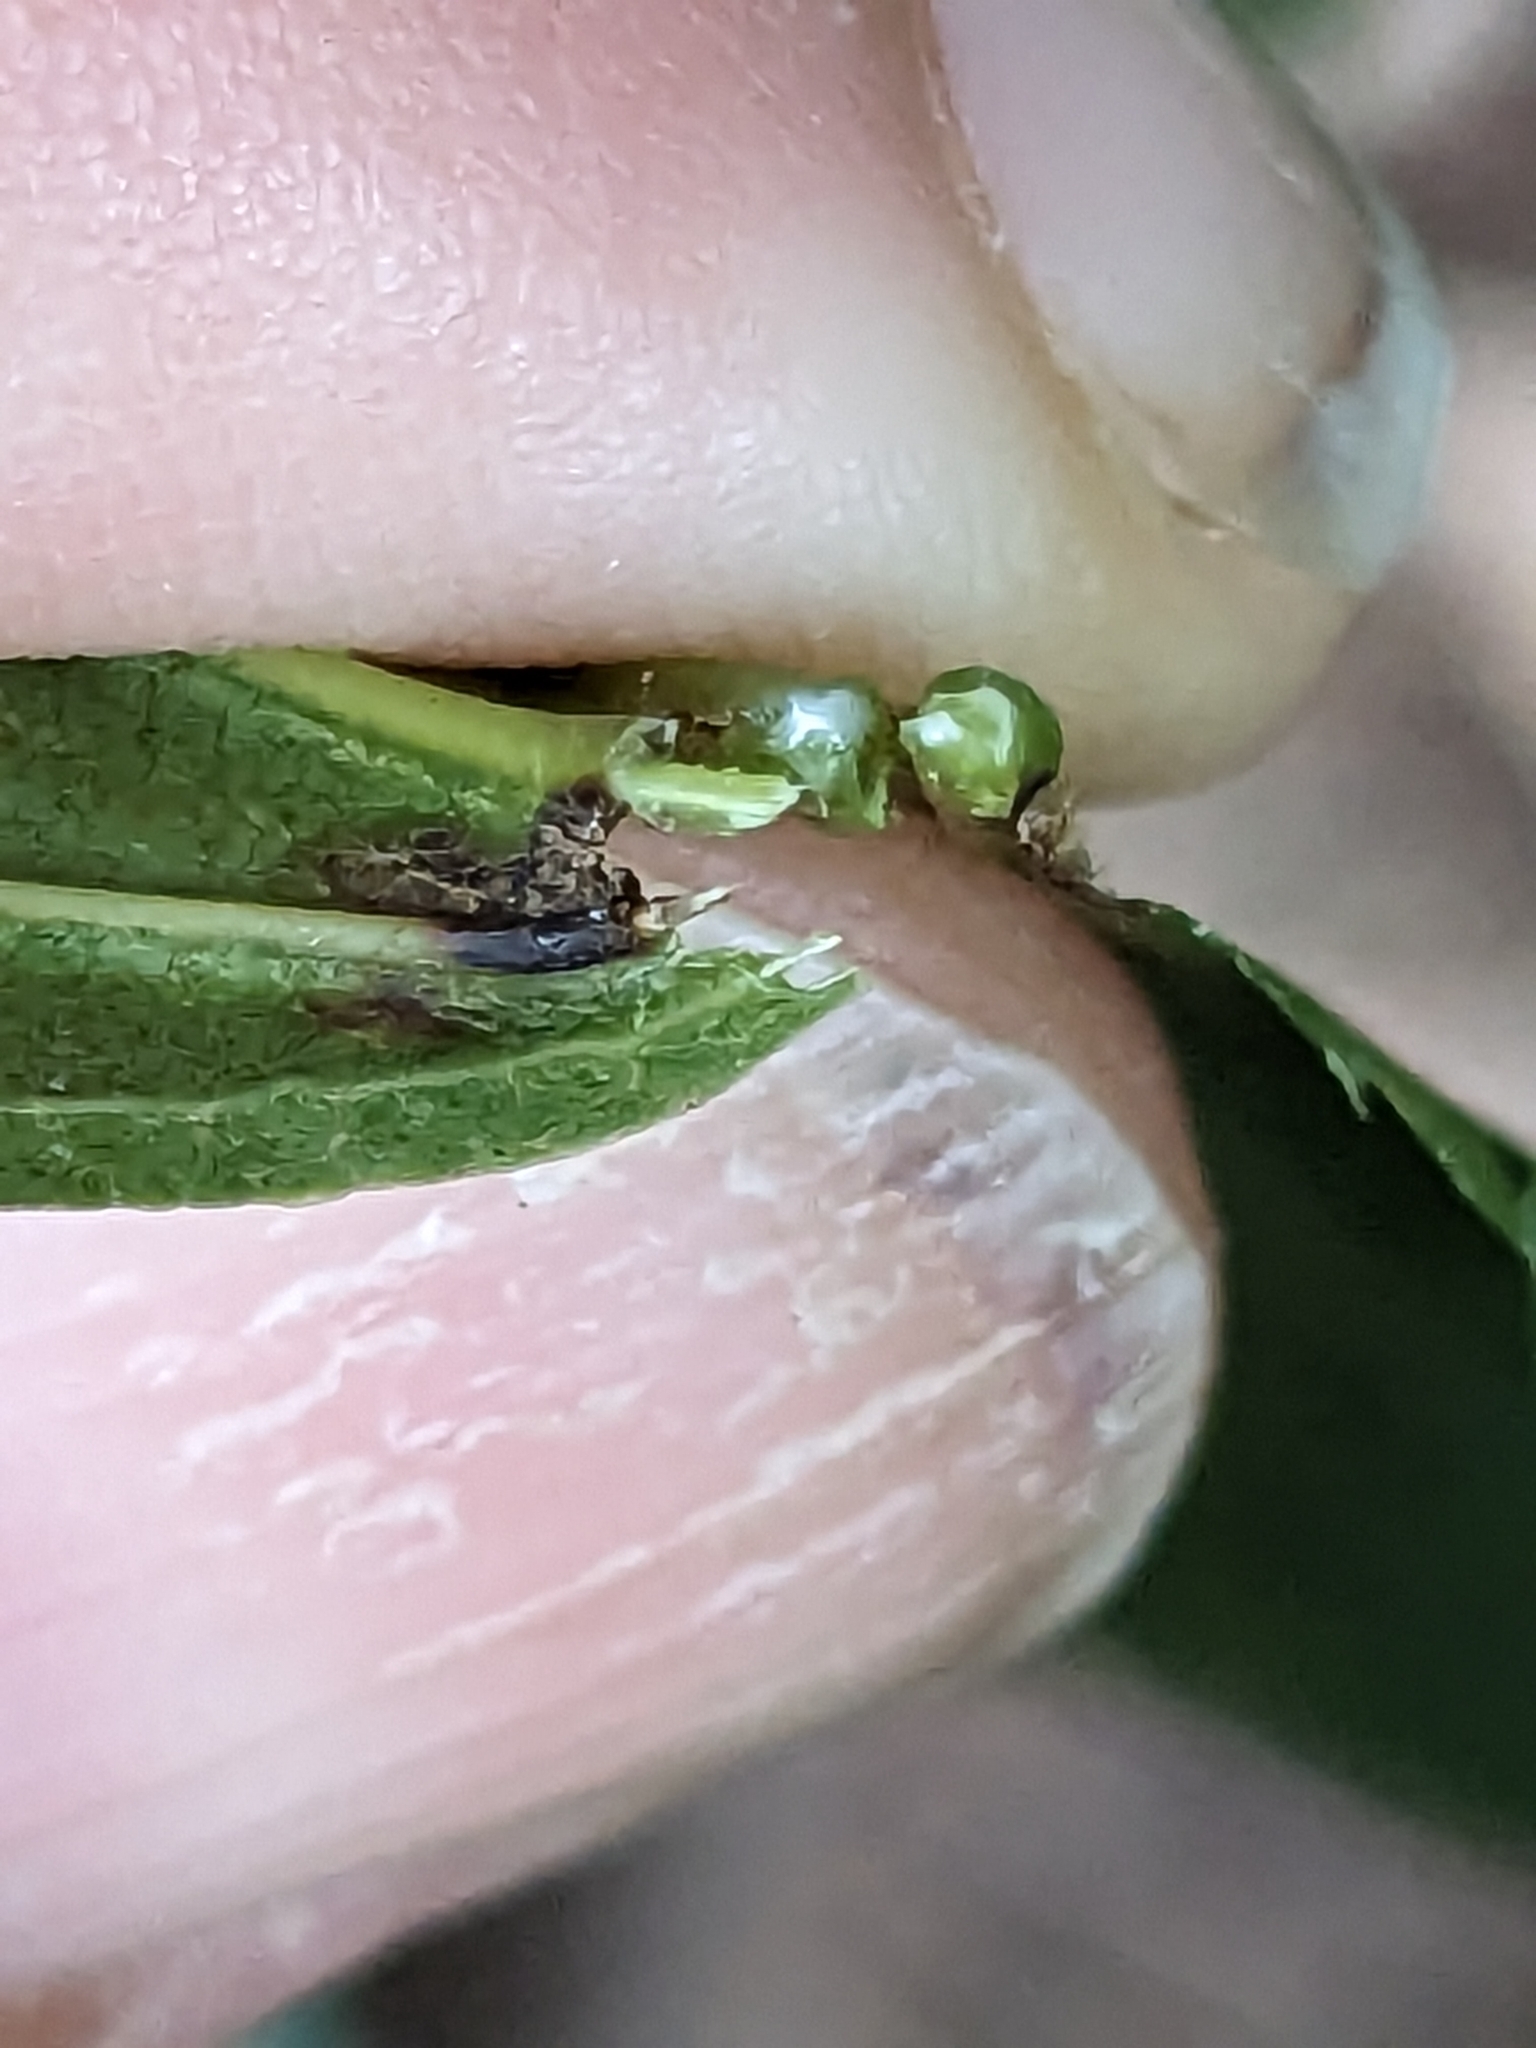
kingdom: Plantae
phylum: Tracheophyta
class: Magnoliopsida
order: Sapindales
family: Sapindaceae
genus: Acer
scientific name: Acer platanoides
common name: Norway maple
